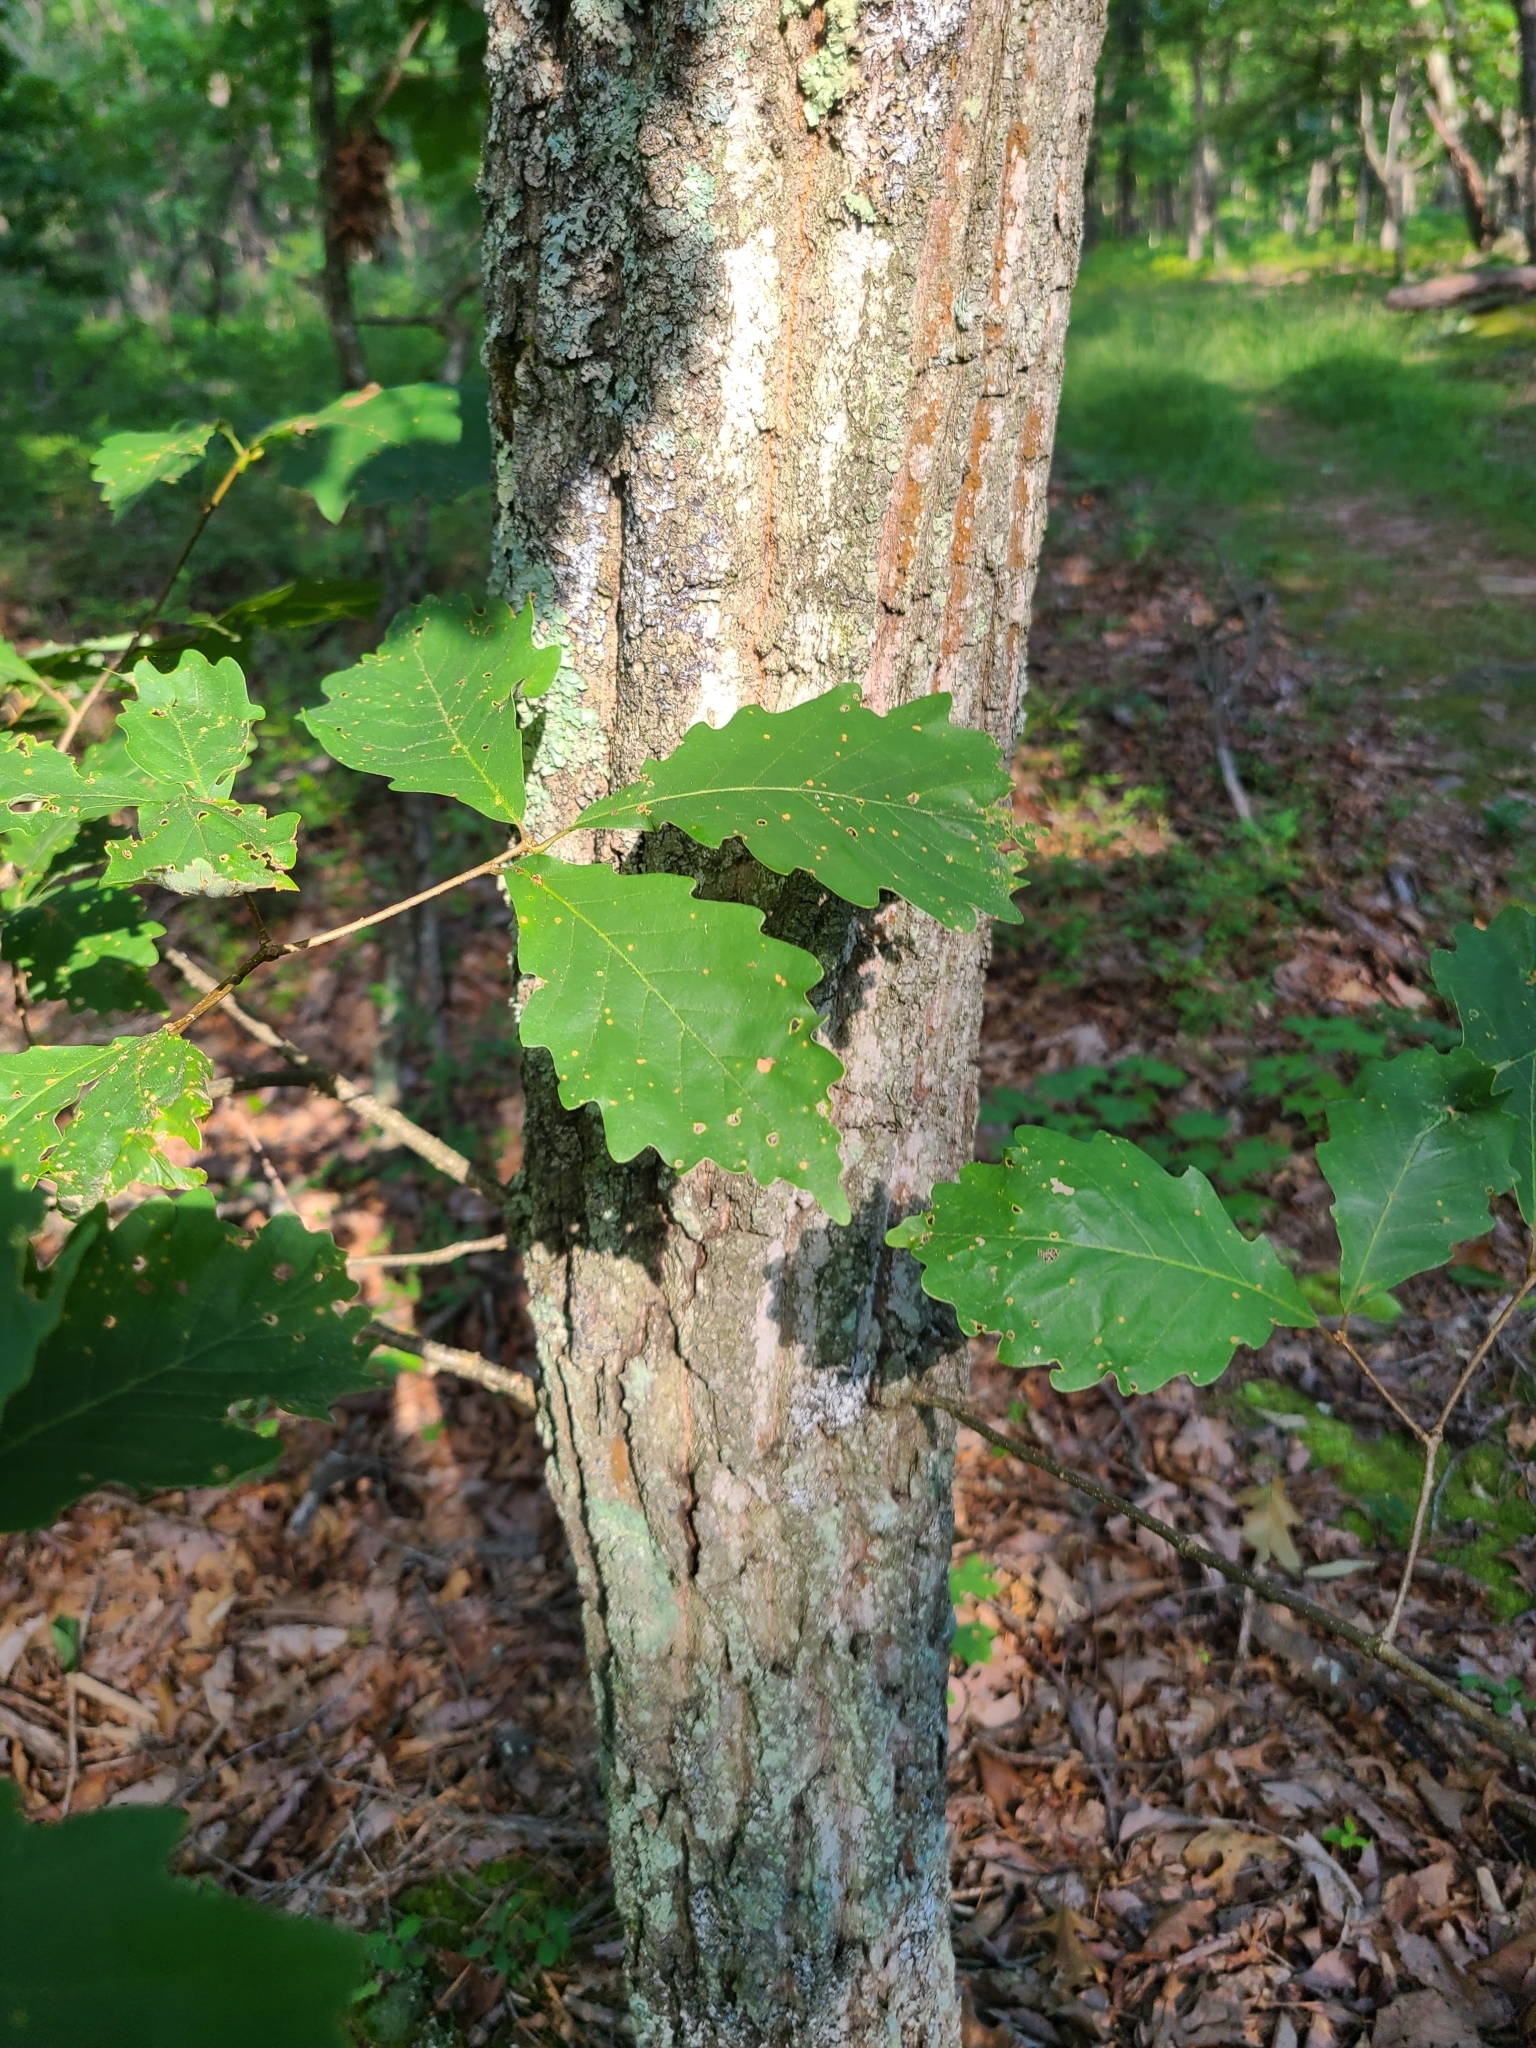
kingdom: Plantae
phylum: Tracheophyta
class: Magnoliopsida
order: Fagales
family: Fagaceae
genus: Quercus
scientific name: Quercus montana
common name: Chestnut oak
